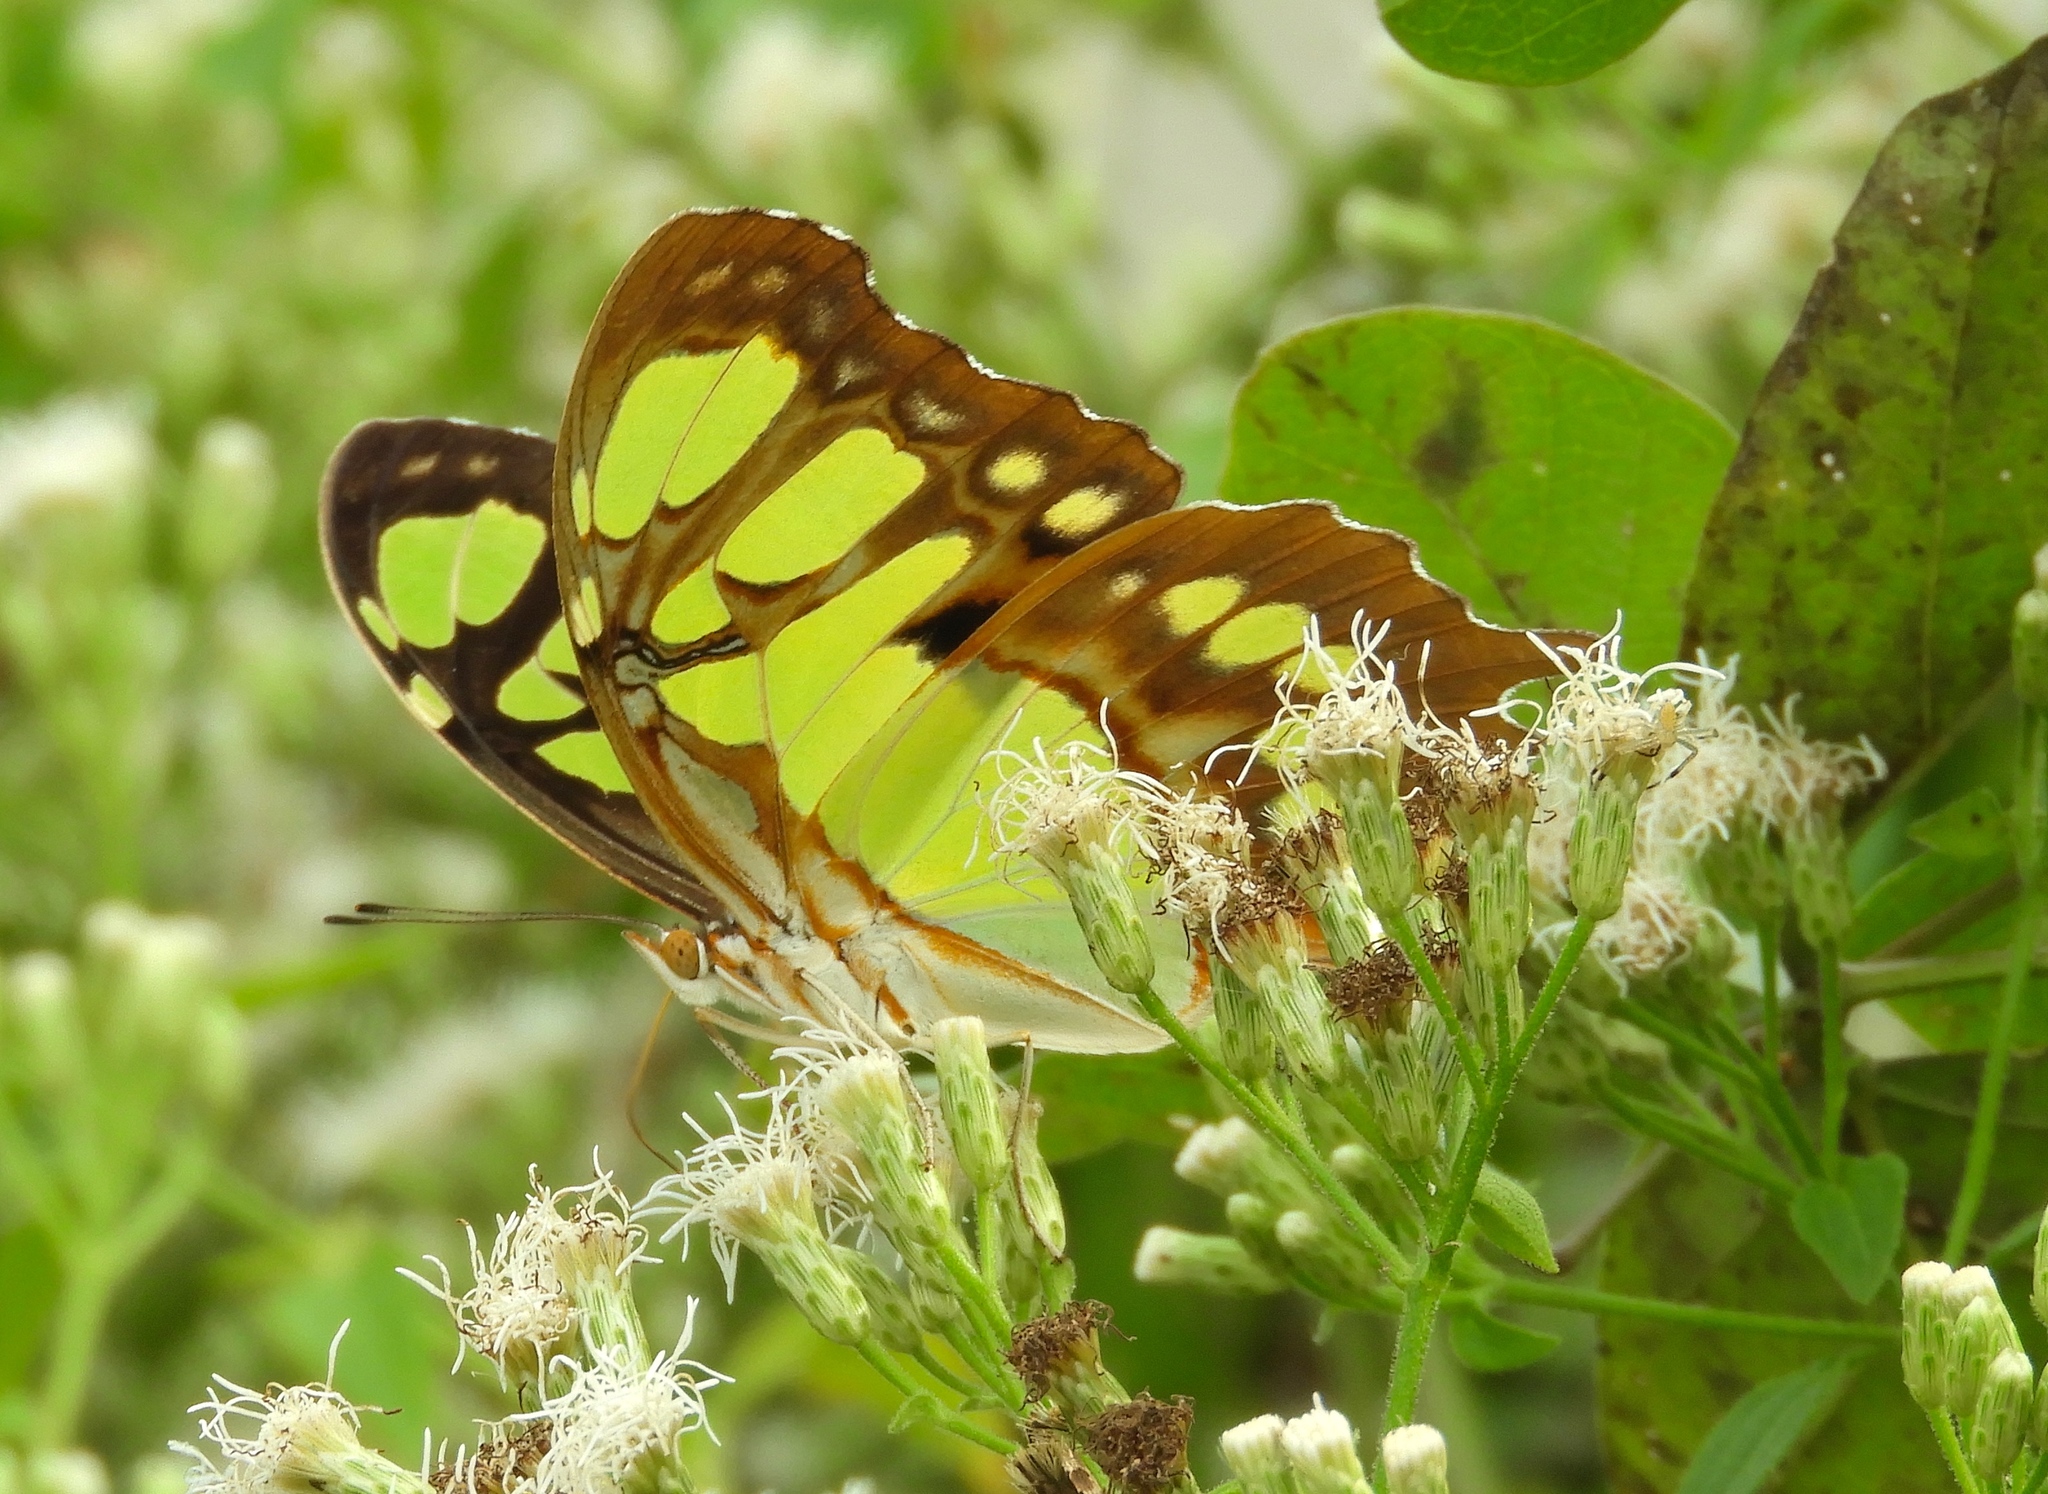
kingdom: Animalia
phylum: Arthropoda
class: Insecta
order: Lepidoptera
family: Nymphalidae
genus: Siproeta
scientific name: Siproeta stelenes
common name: Malachite
